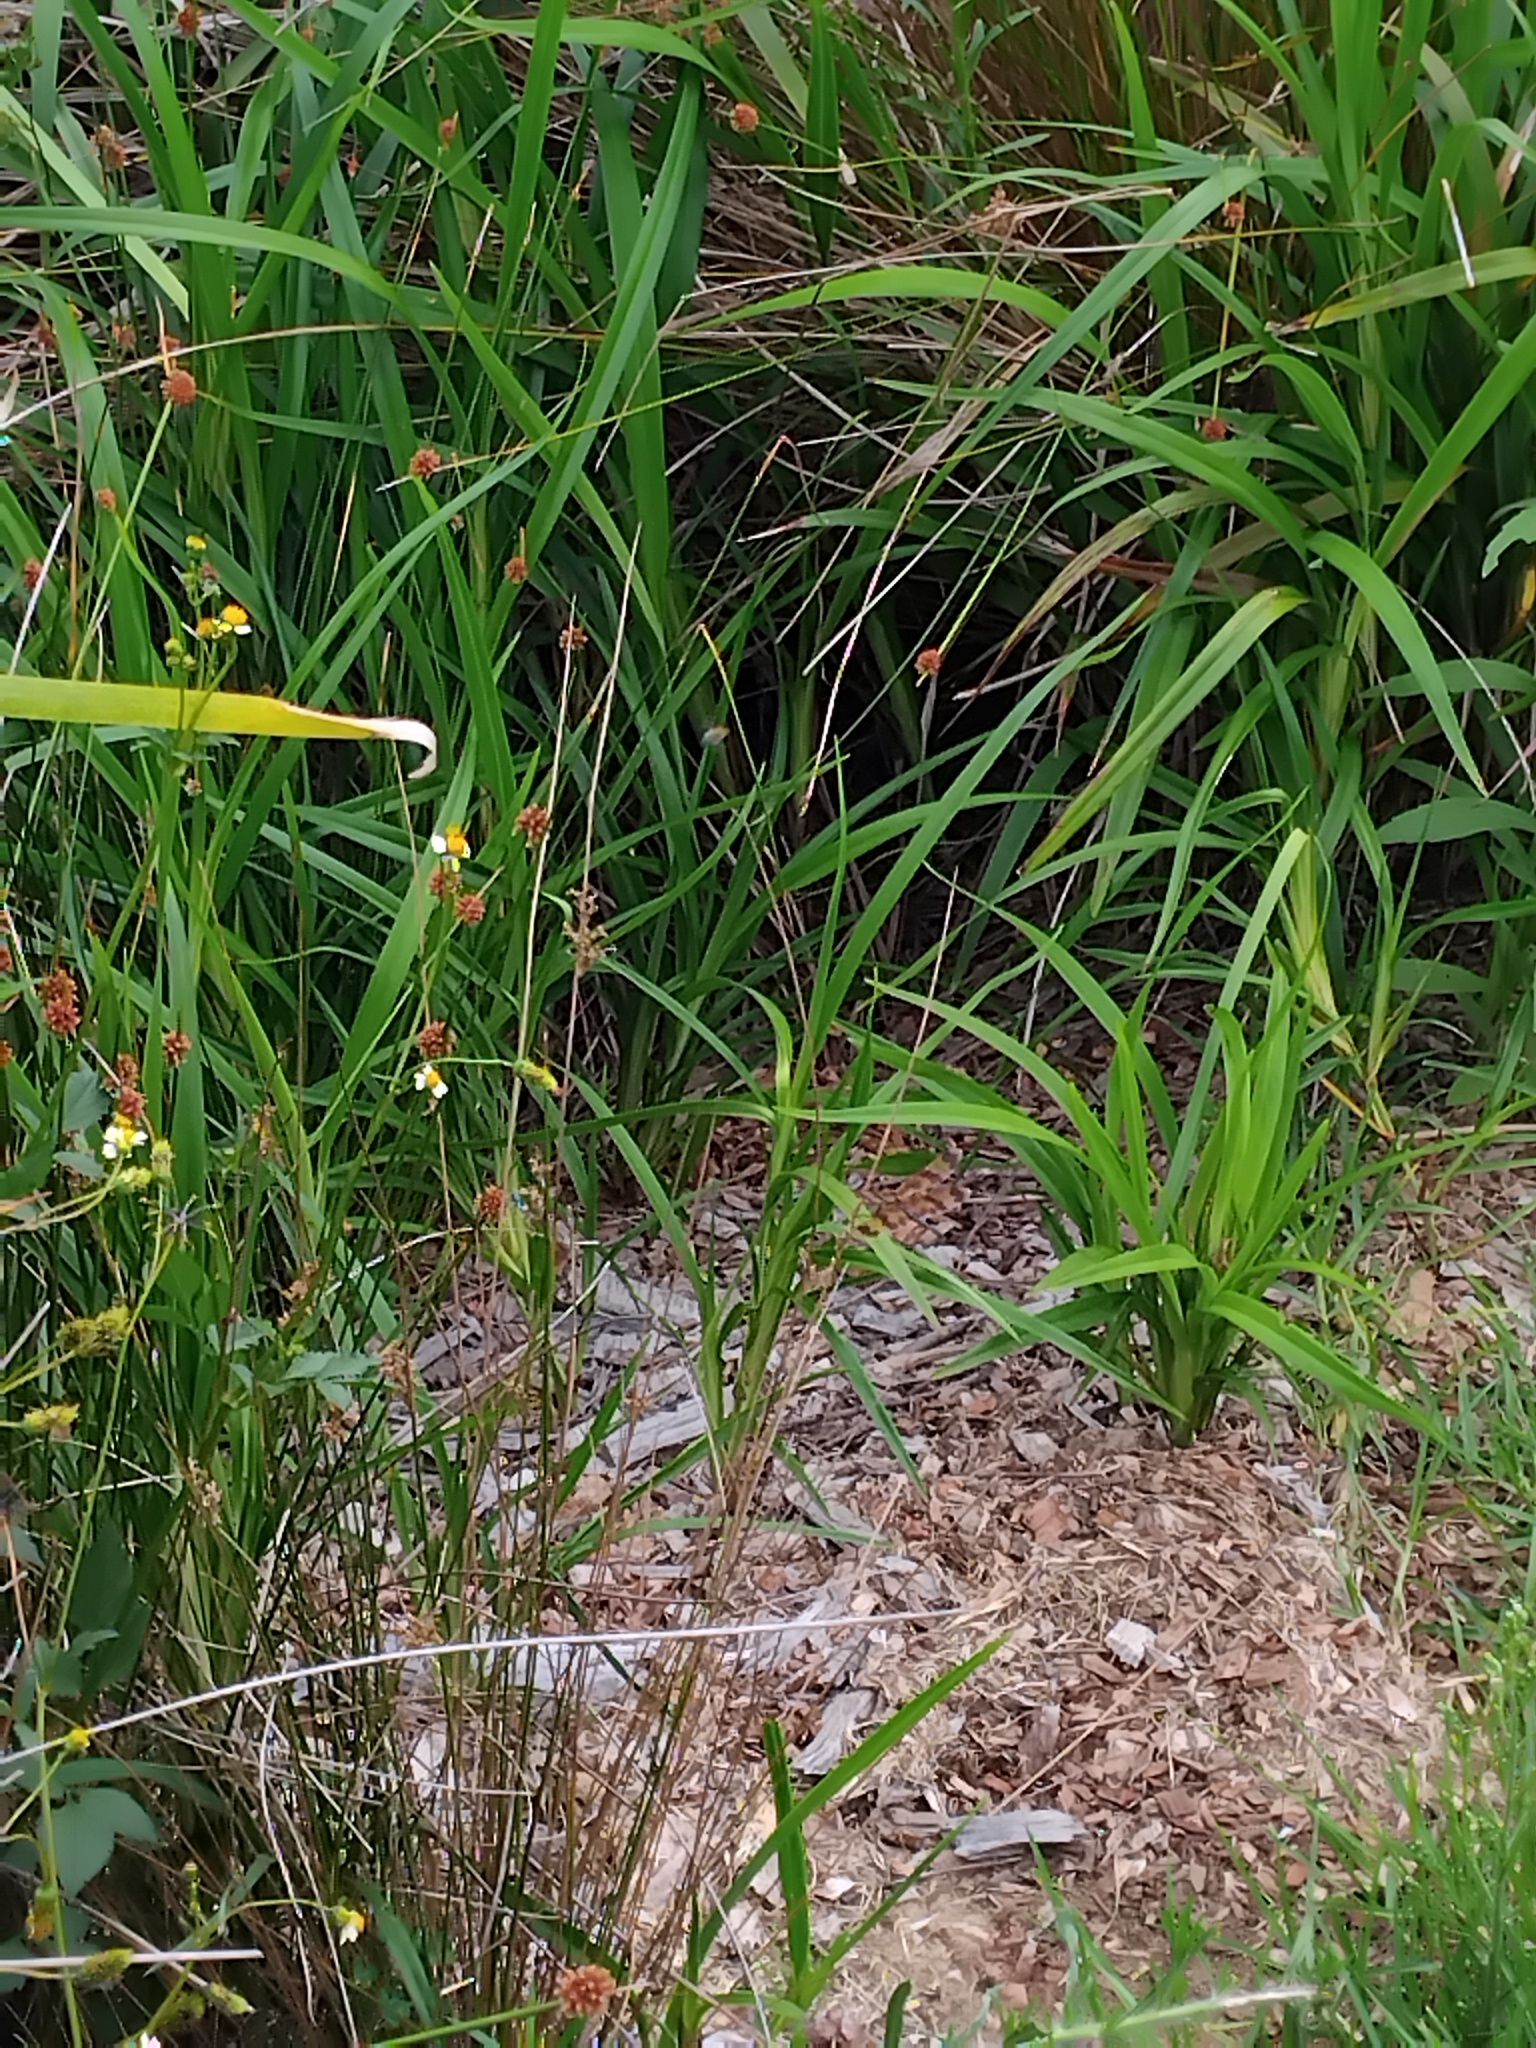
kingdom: Animalia
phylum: Arthropoda
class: Insecta
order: Odonata
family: Libellulidae
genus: Rhyothemis
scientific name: Rhyothemis graphiptera
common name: Graphic flutterer
